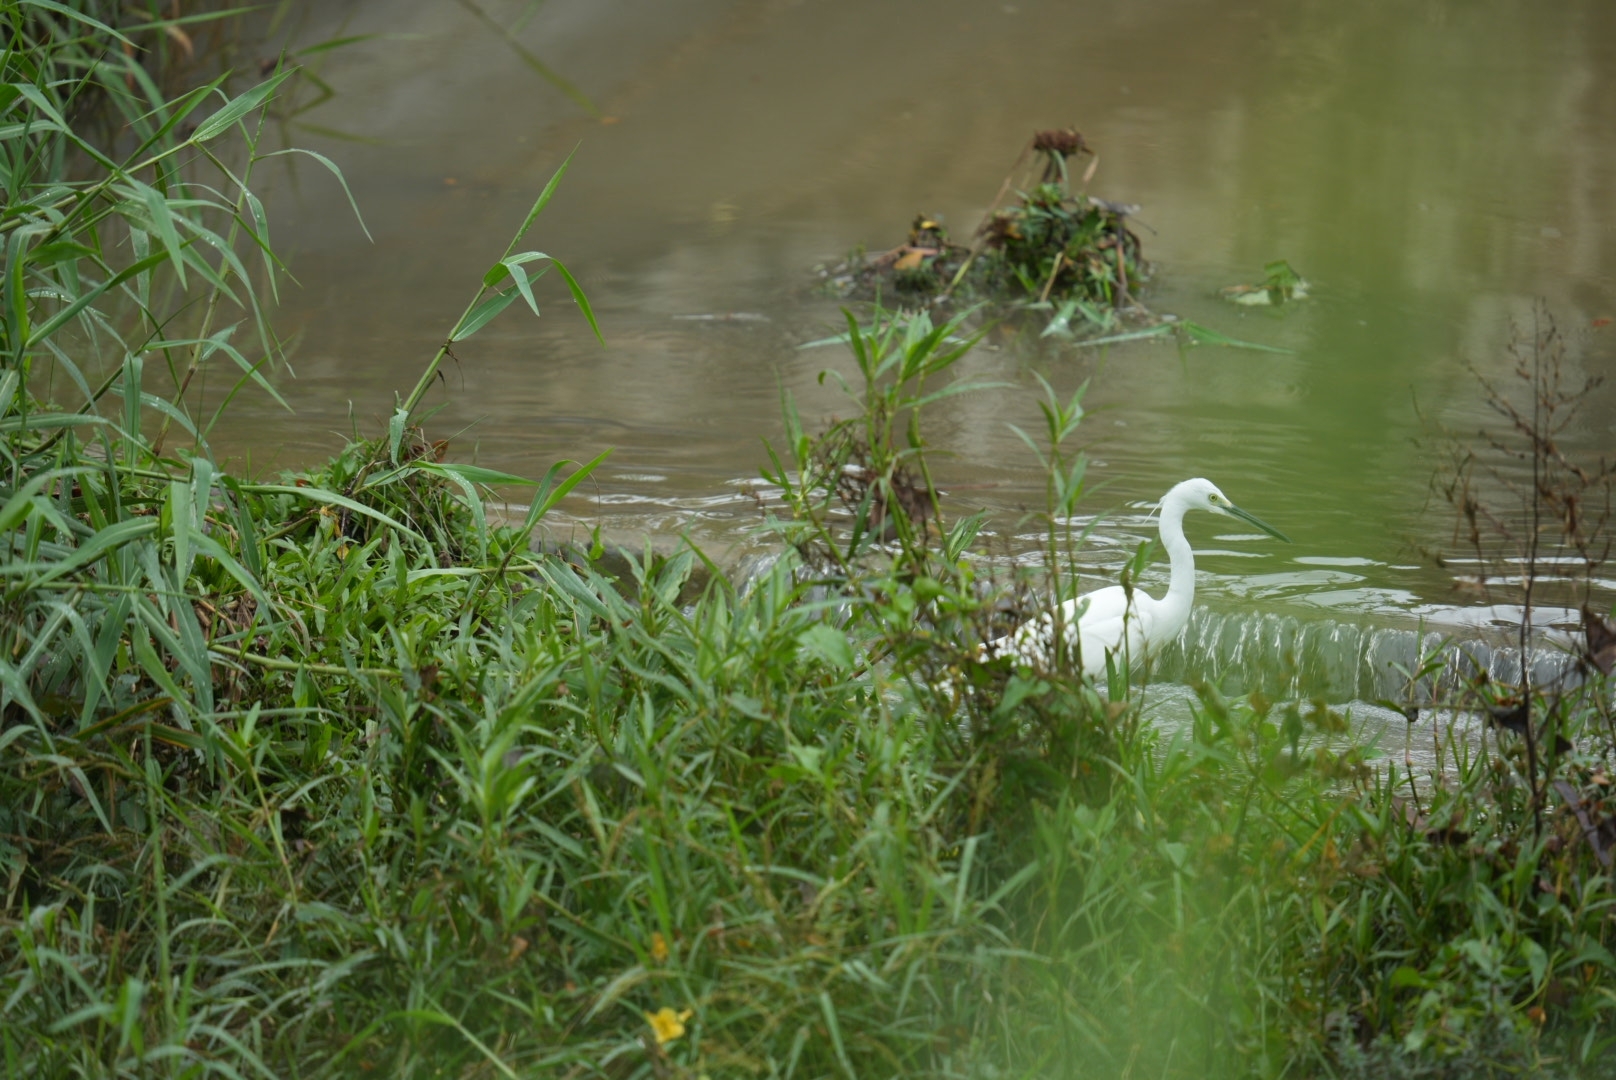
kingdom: Animalia
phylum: Chordata
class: Aves
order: Pelecaniformes
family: Ardeidae
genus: Egretta
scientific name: Egretta garzetta
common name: Little egret
